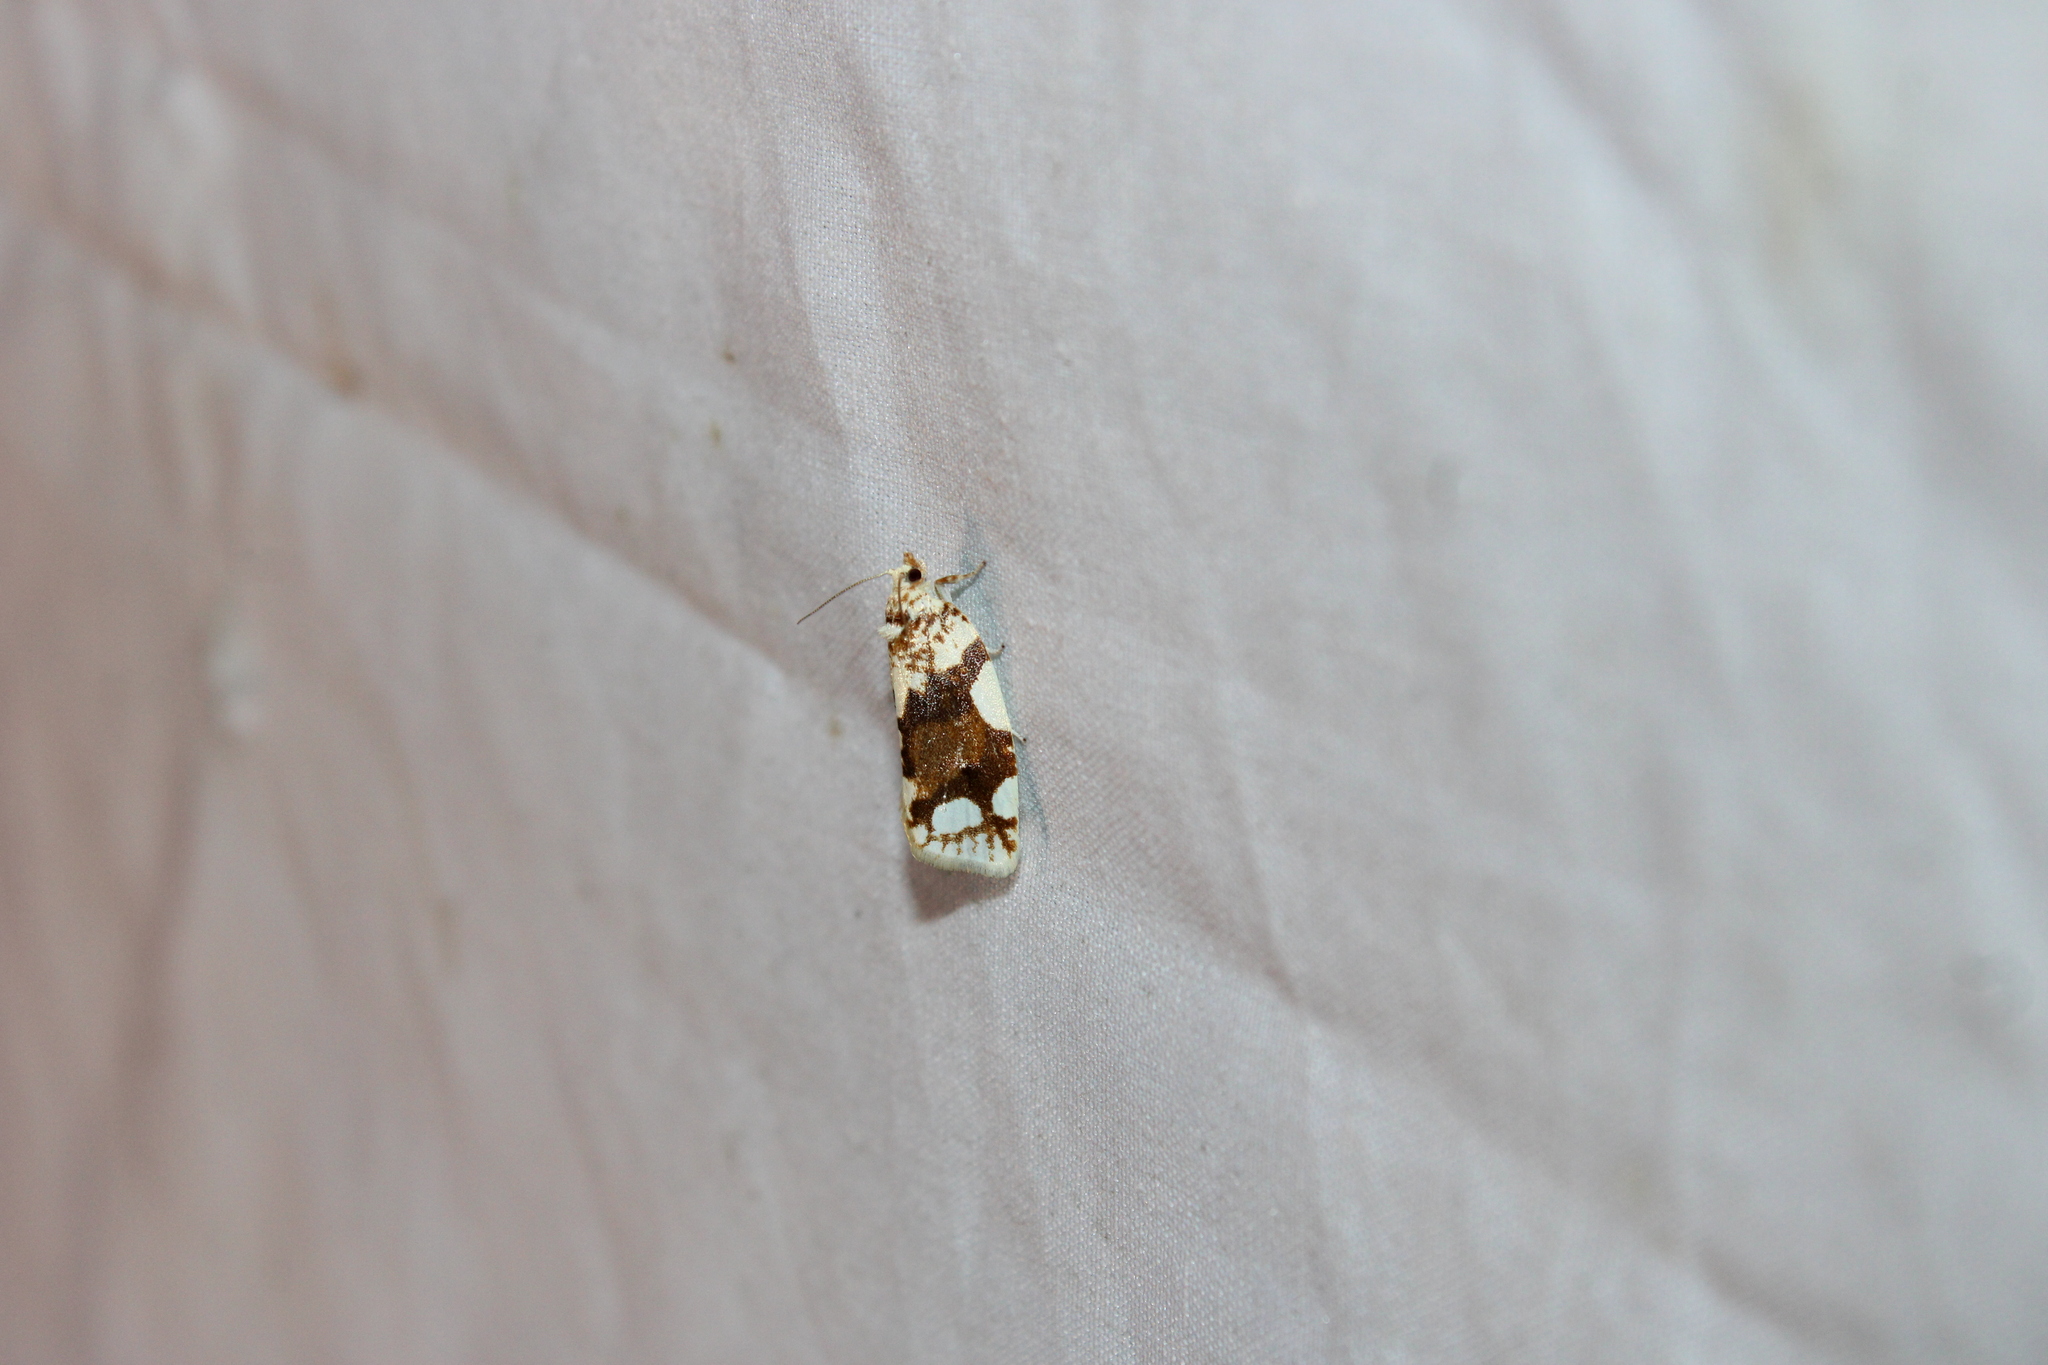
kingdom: Animalia
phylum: Arthropoda
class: Insecta
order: Lepidoptera
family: Tortricidae
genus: Argyrotaenia
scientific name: Argyrotaenia alisellana
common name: White-spotted leafroller moth
